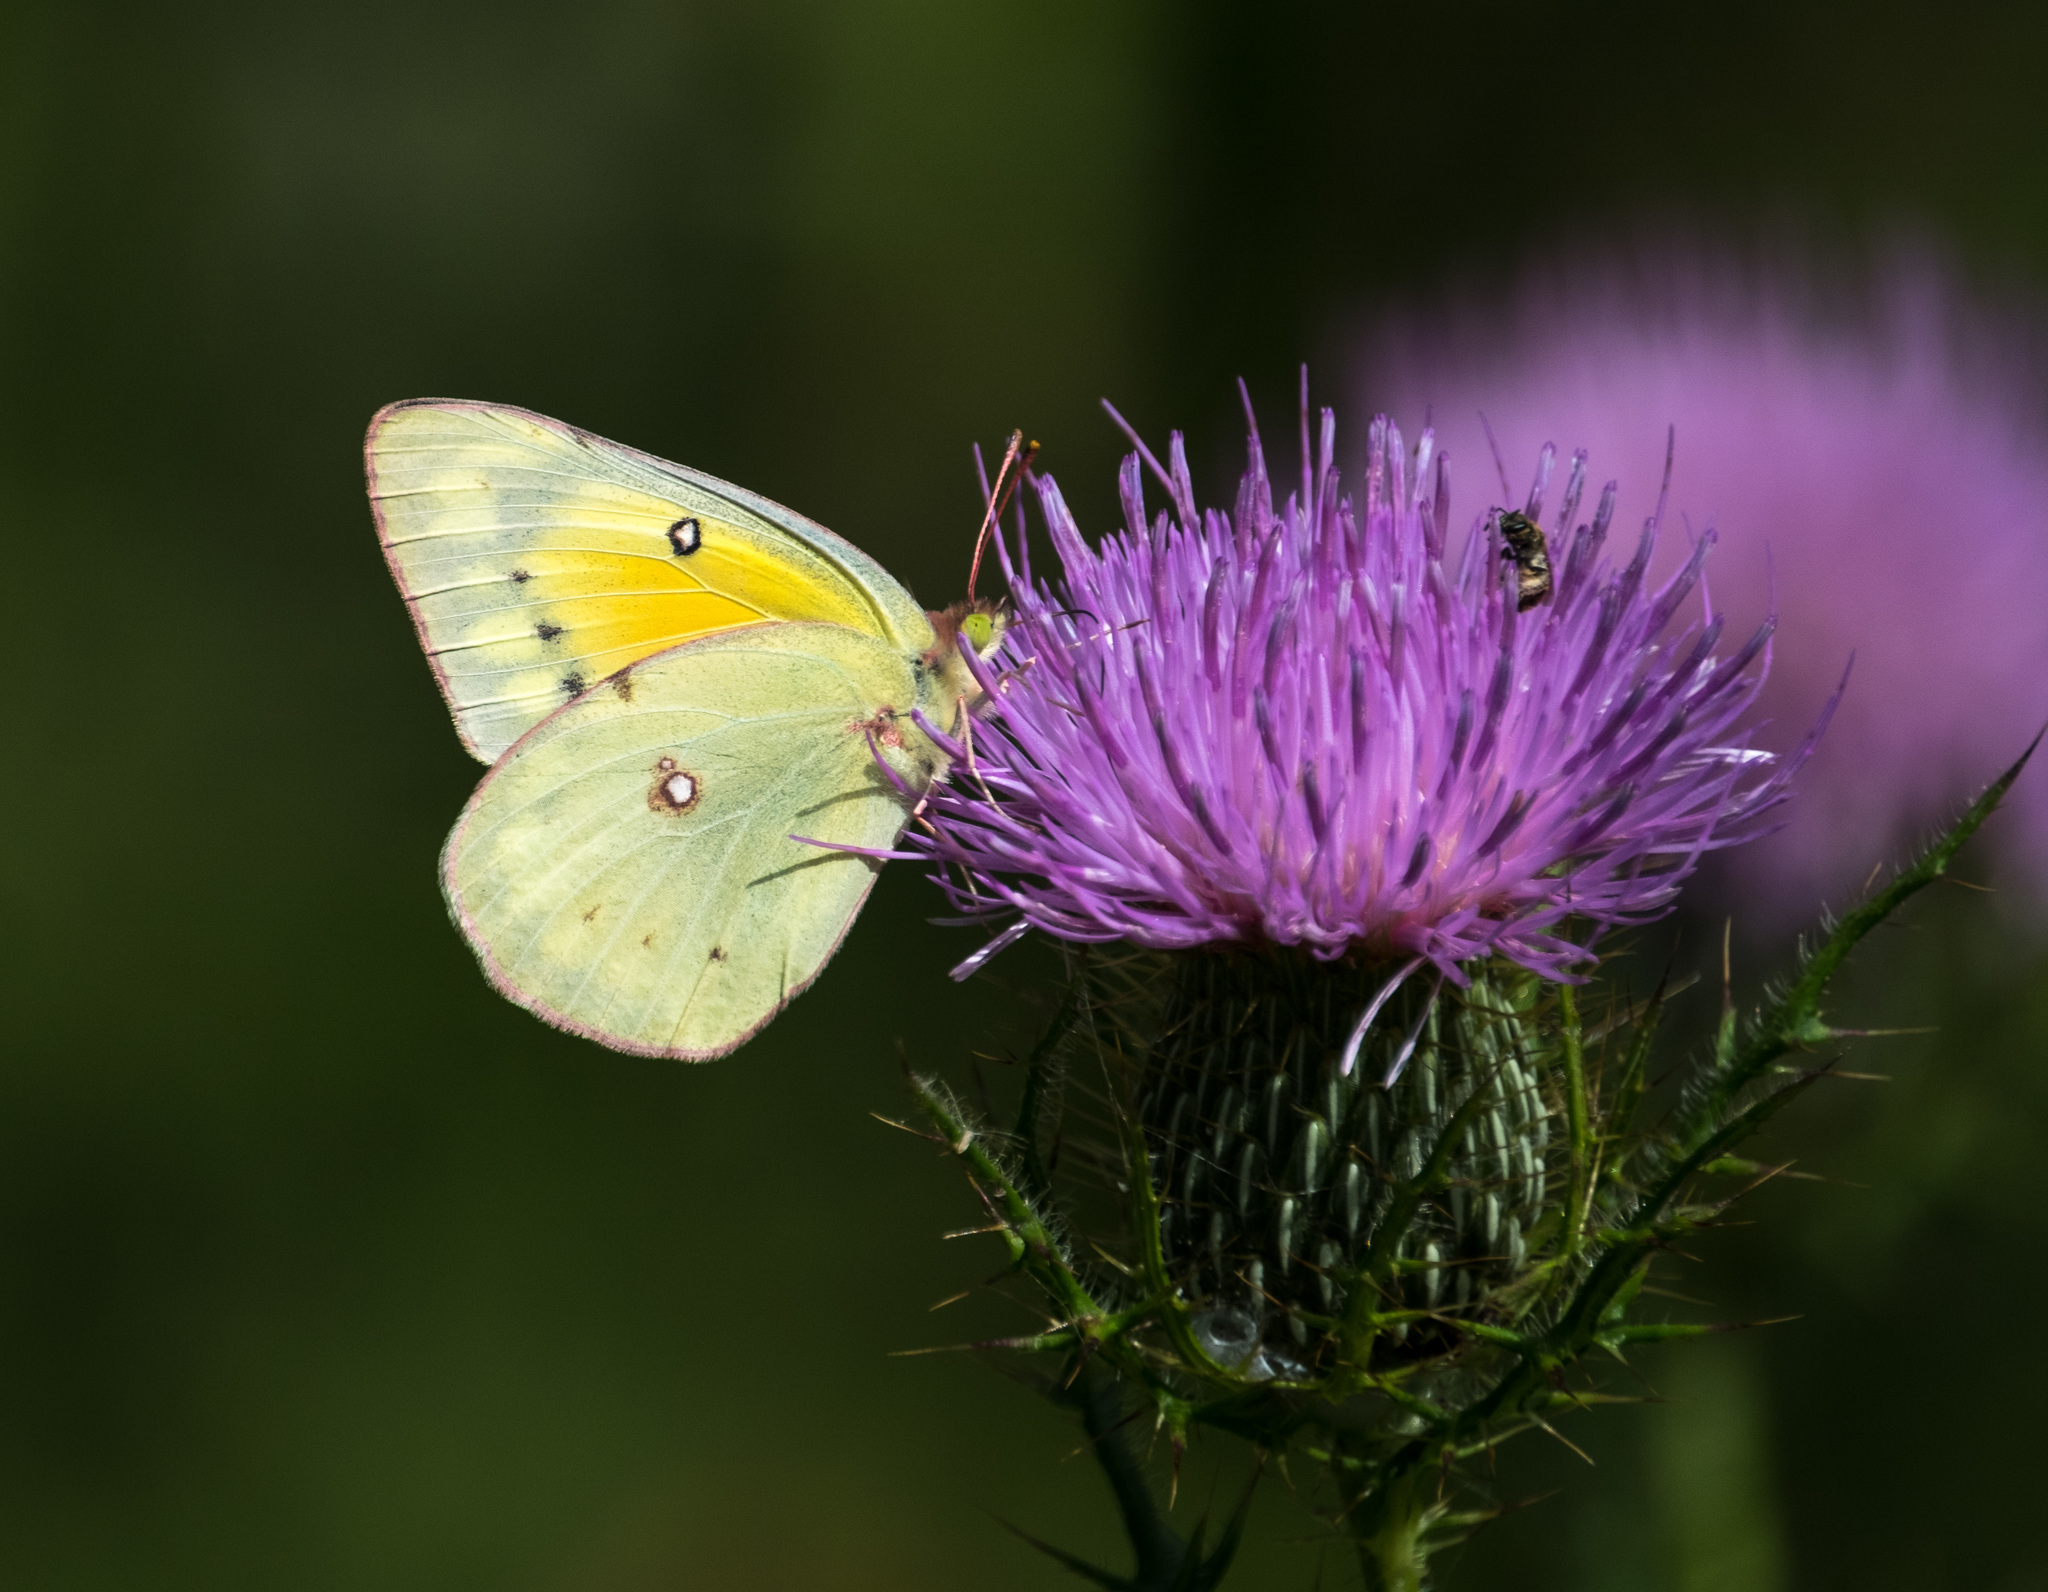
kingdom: Animalia
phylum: Arthropoda
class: Insecta
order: Lepidoptera
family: Pieridae
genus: Colias
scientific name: Colias eurytheme
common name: Alfalfa butterfly
